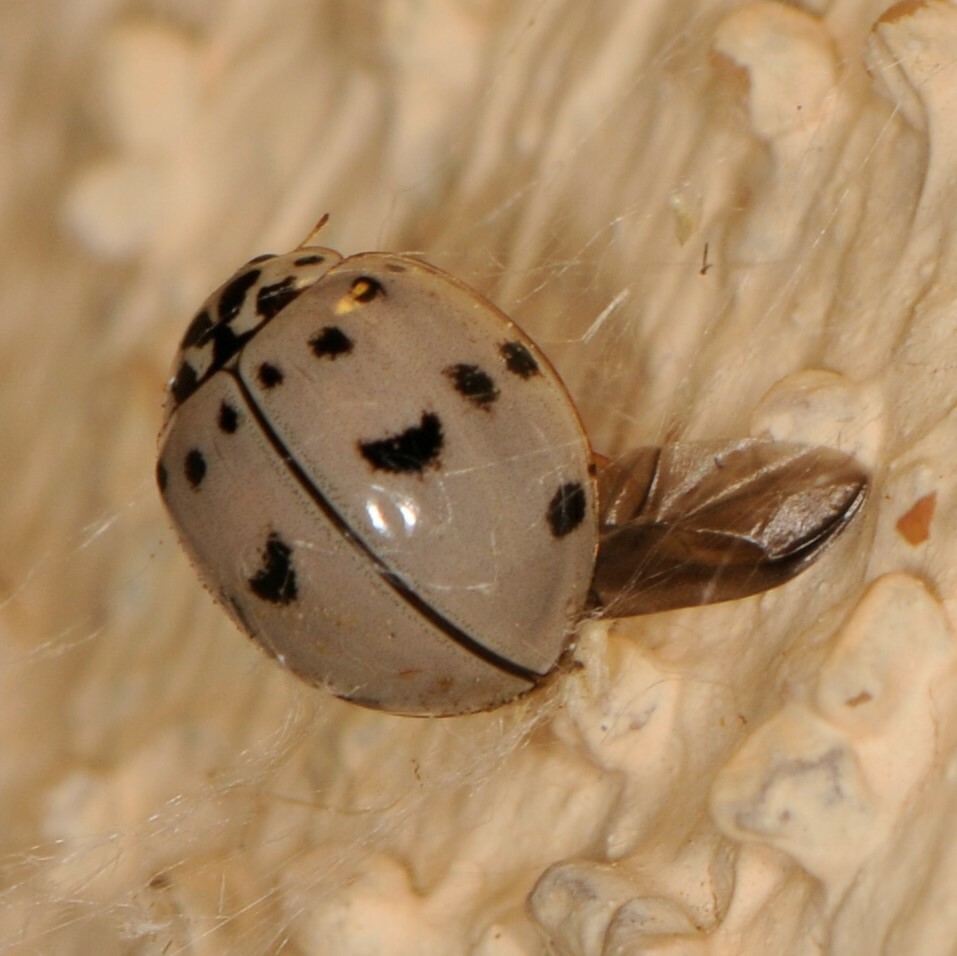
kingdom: Animalia
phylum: Arthropoda
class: Insecta
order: Coleoptera
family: Coccinellidae
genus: Olla
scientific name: Olla v-nigrum
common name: Ashy gray lady beetle
